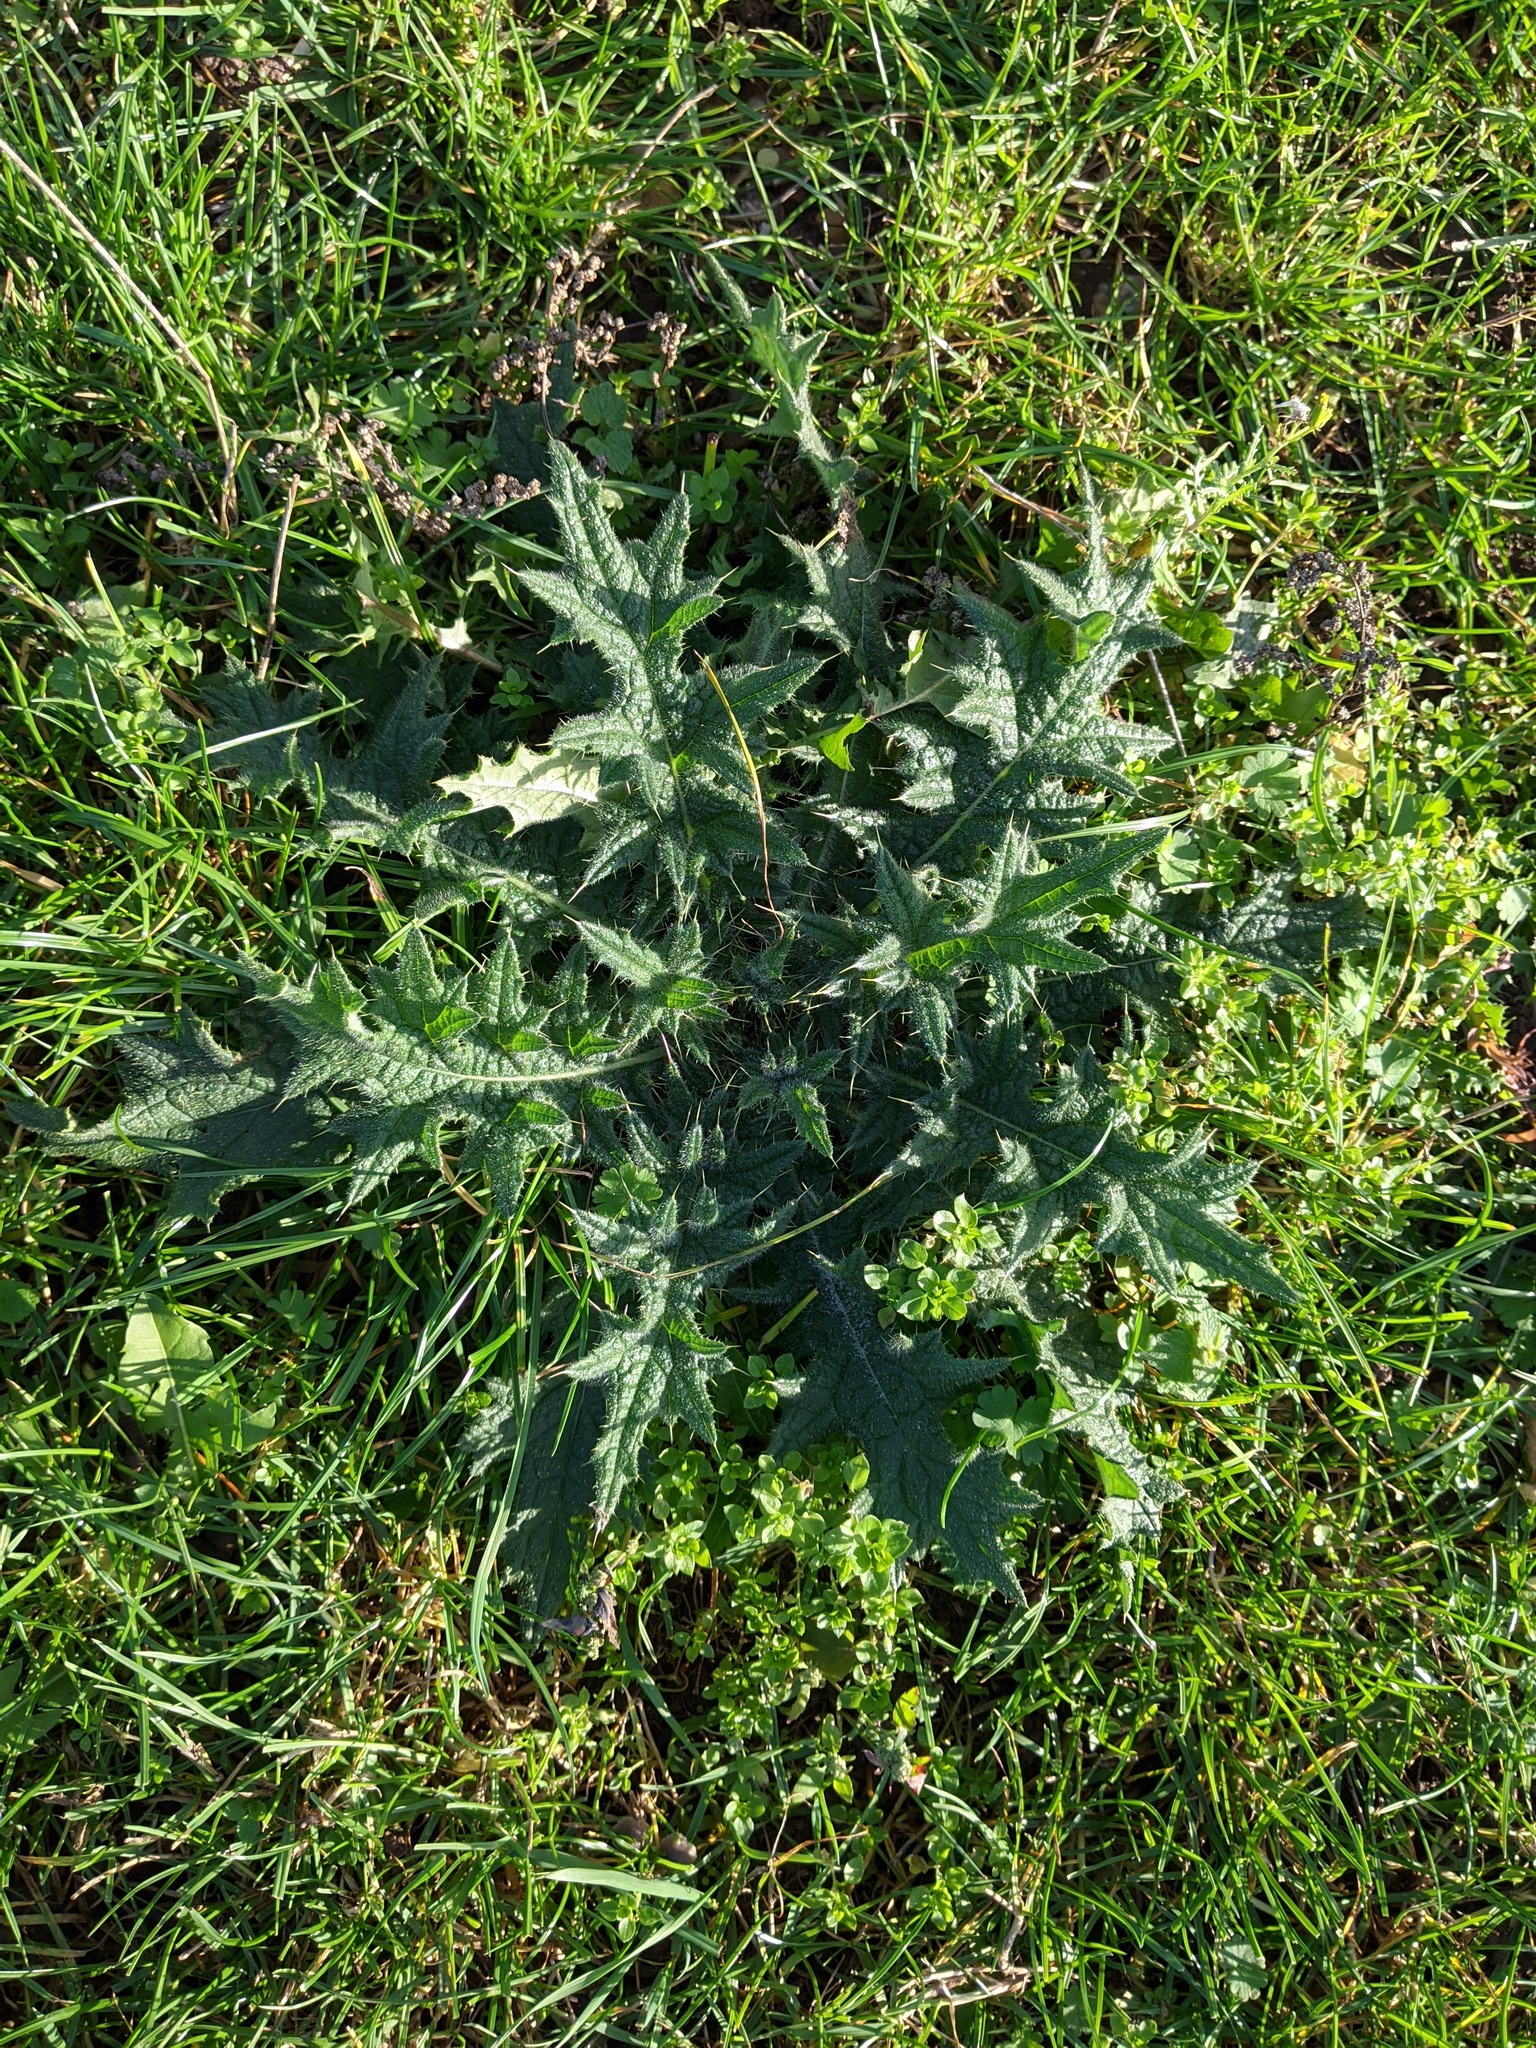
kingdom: Plantae
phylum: Tracheophyta
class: Magnoliopsida
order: Asterales
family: Asteraceae
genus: Cirsium
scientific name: Cirsium vulgare
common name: Bull thistle
